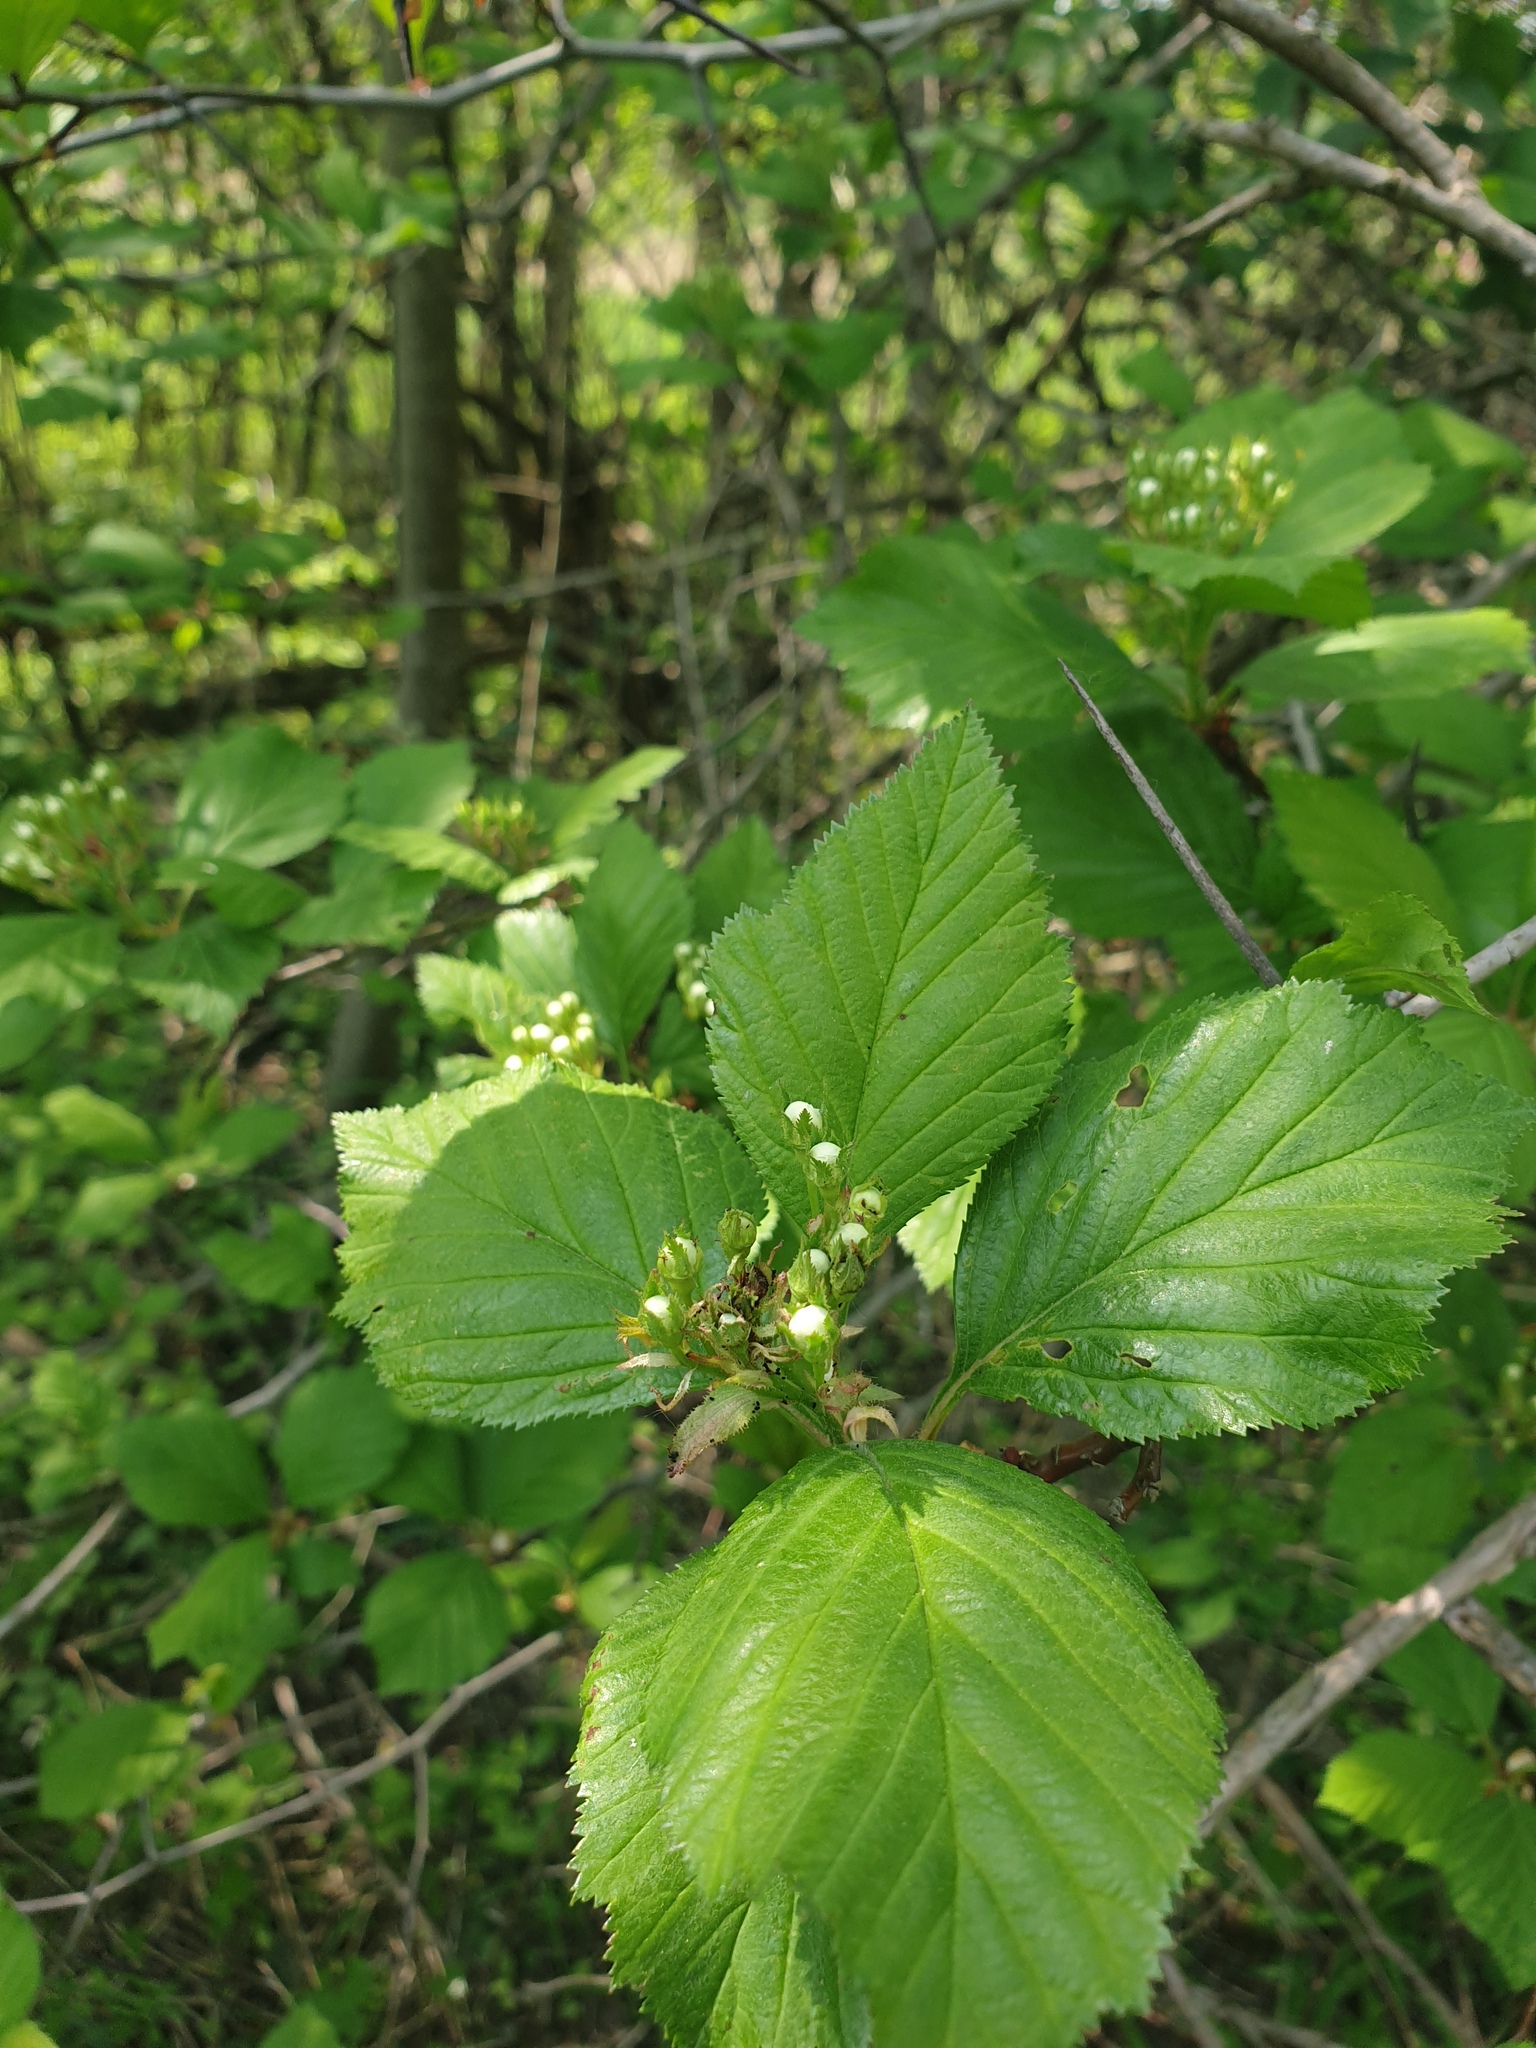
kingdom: Plantae
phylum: Tracheophyta
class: Magnoliopsida
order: Rosales
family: Rosaceae
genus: Crataegus
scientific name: Crataegus macracantha
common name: Large-thorn hawthorn
